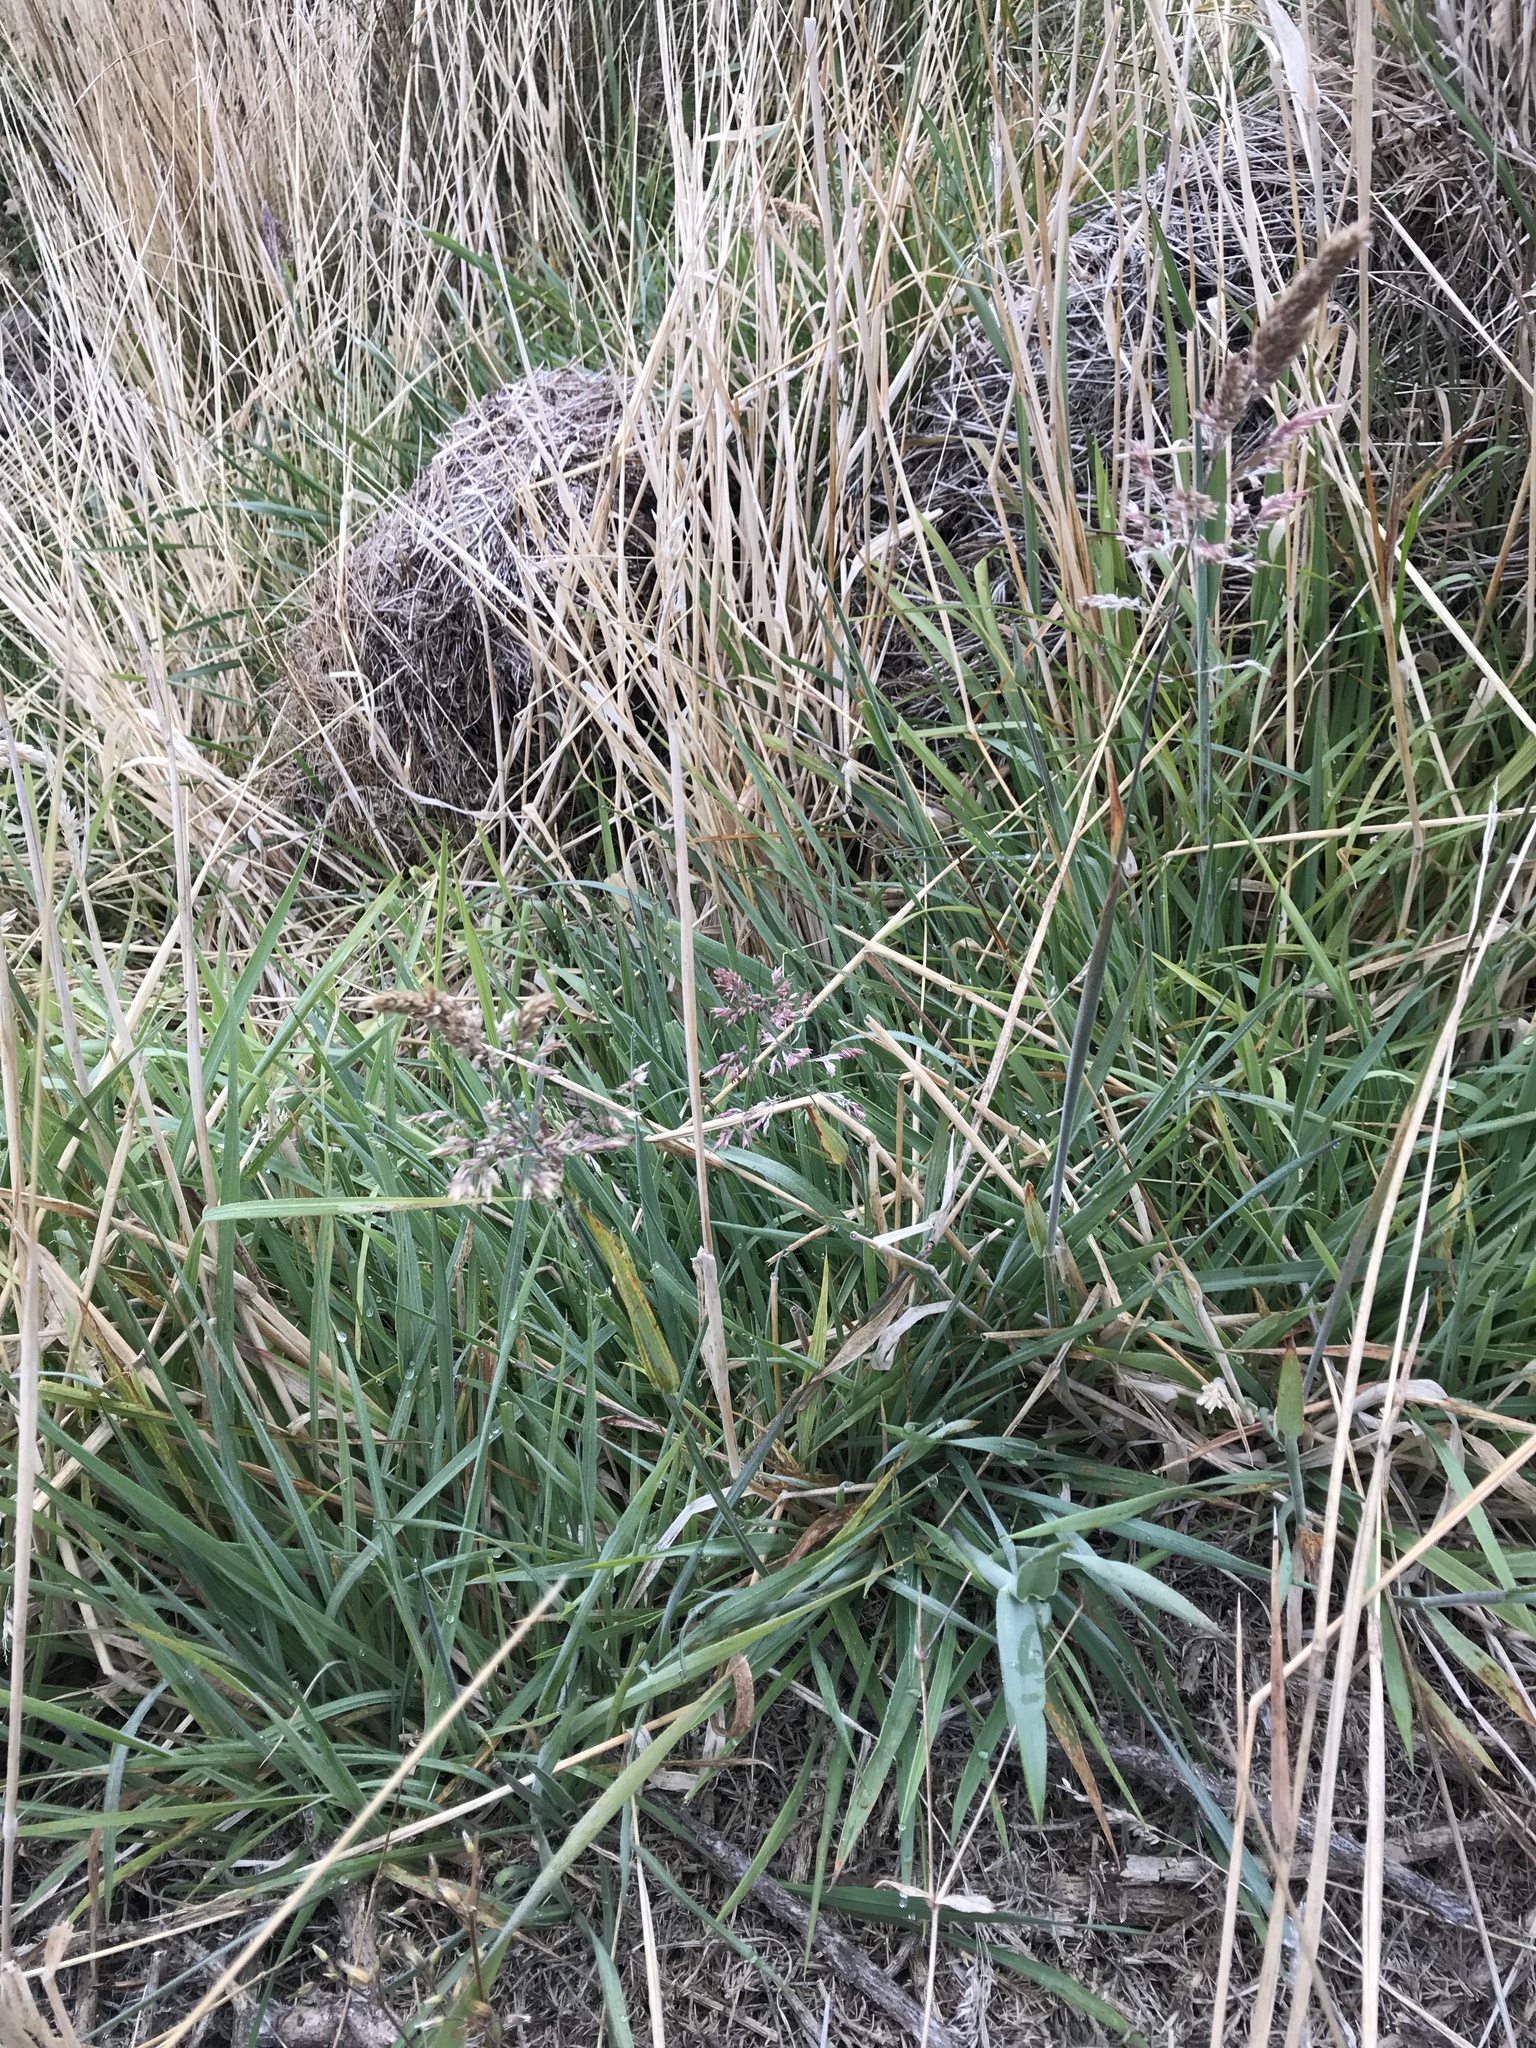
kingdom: Plantae
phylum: Tracheophyta
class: Liliopsida
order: Poales
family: Poaceae
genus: Holcus
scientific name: Holcus lanatus
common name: Yorkshire-fog
